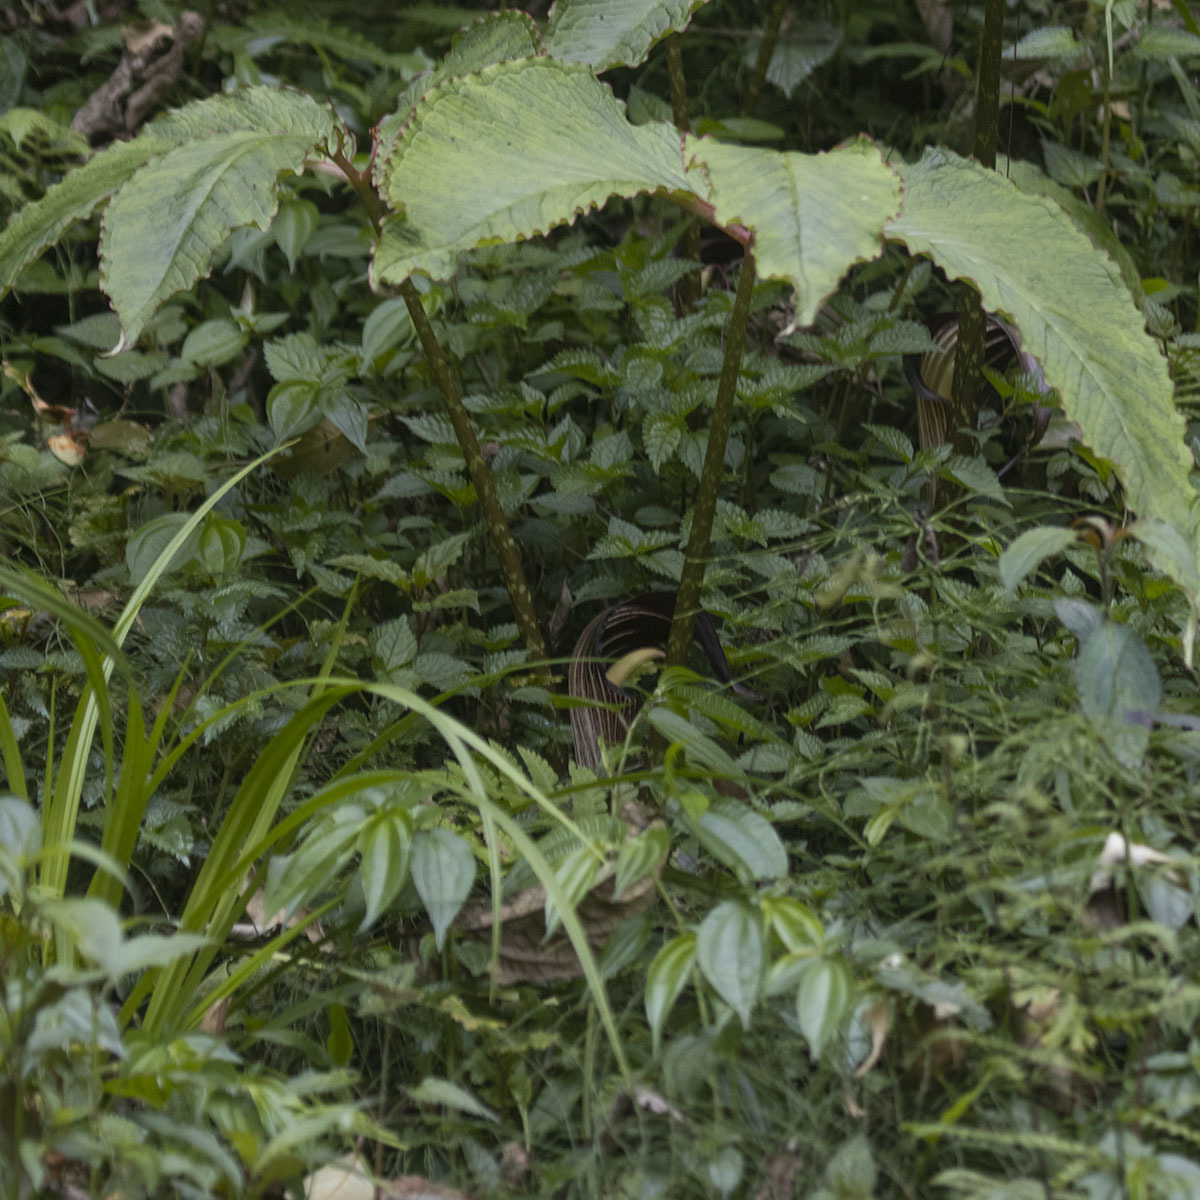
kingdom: Plantae
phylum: Tracheophyta
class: Liliopsida
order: Alismatales
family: Araceae
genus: Arisaema
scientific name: Arisaema speciosum
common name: Showy cobra-lily
